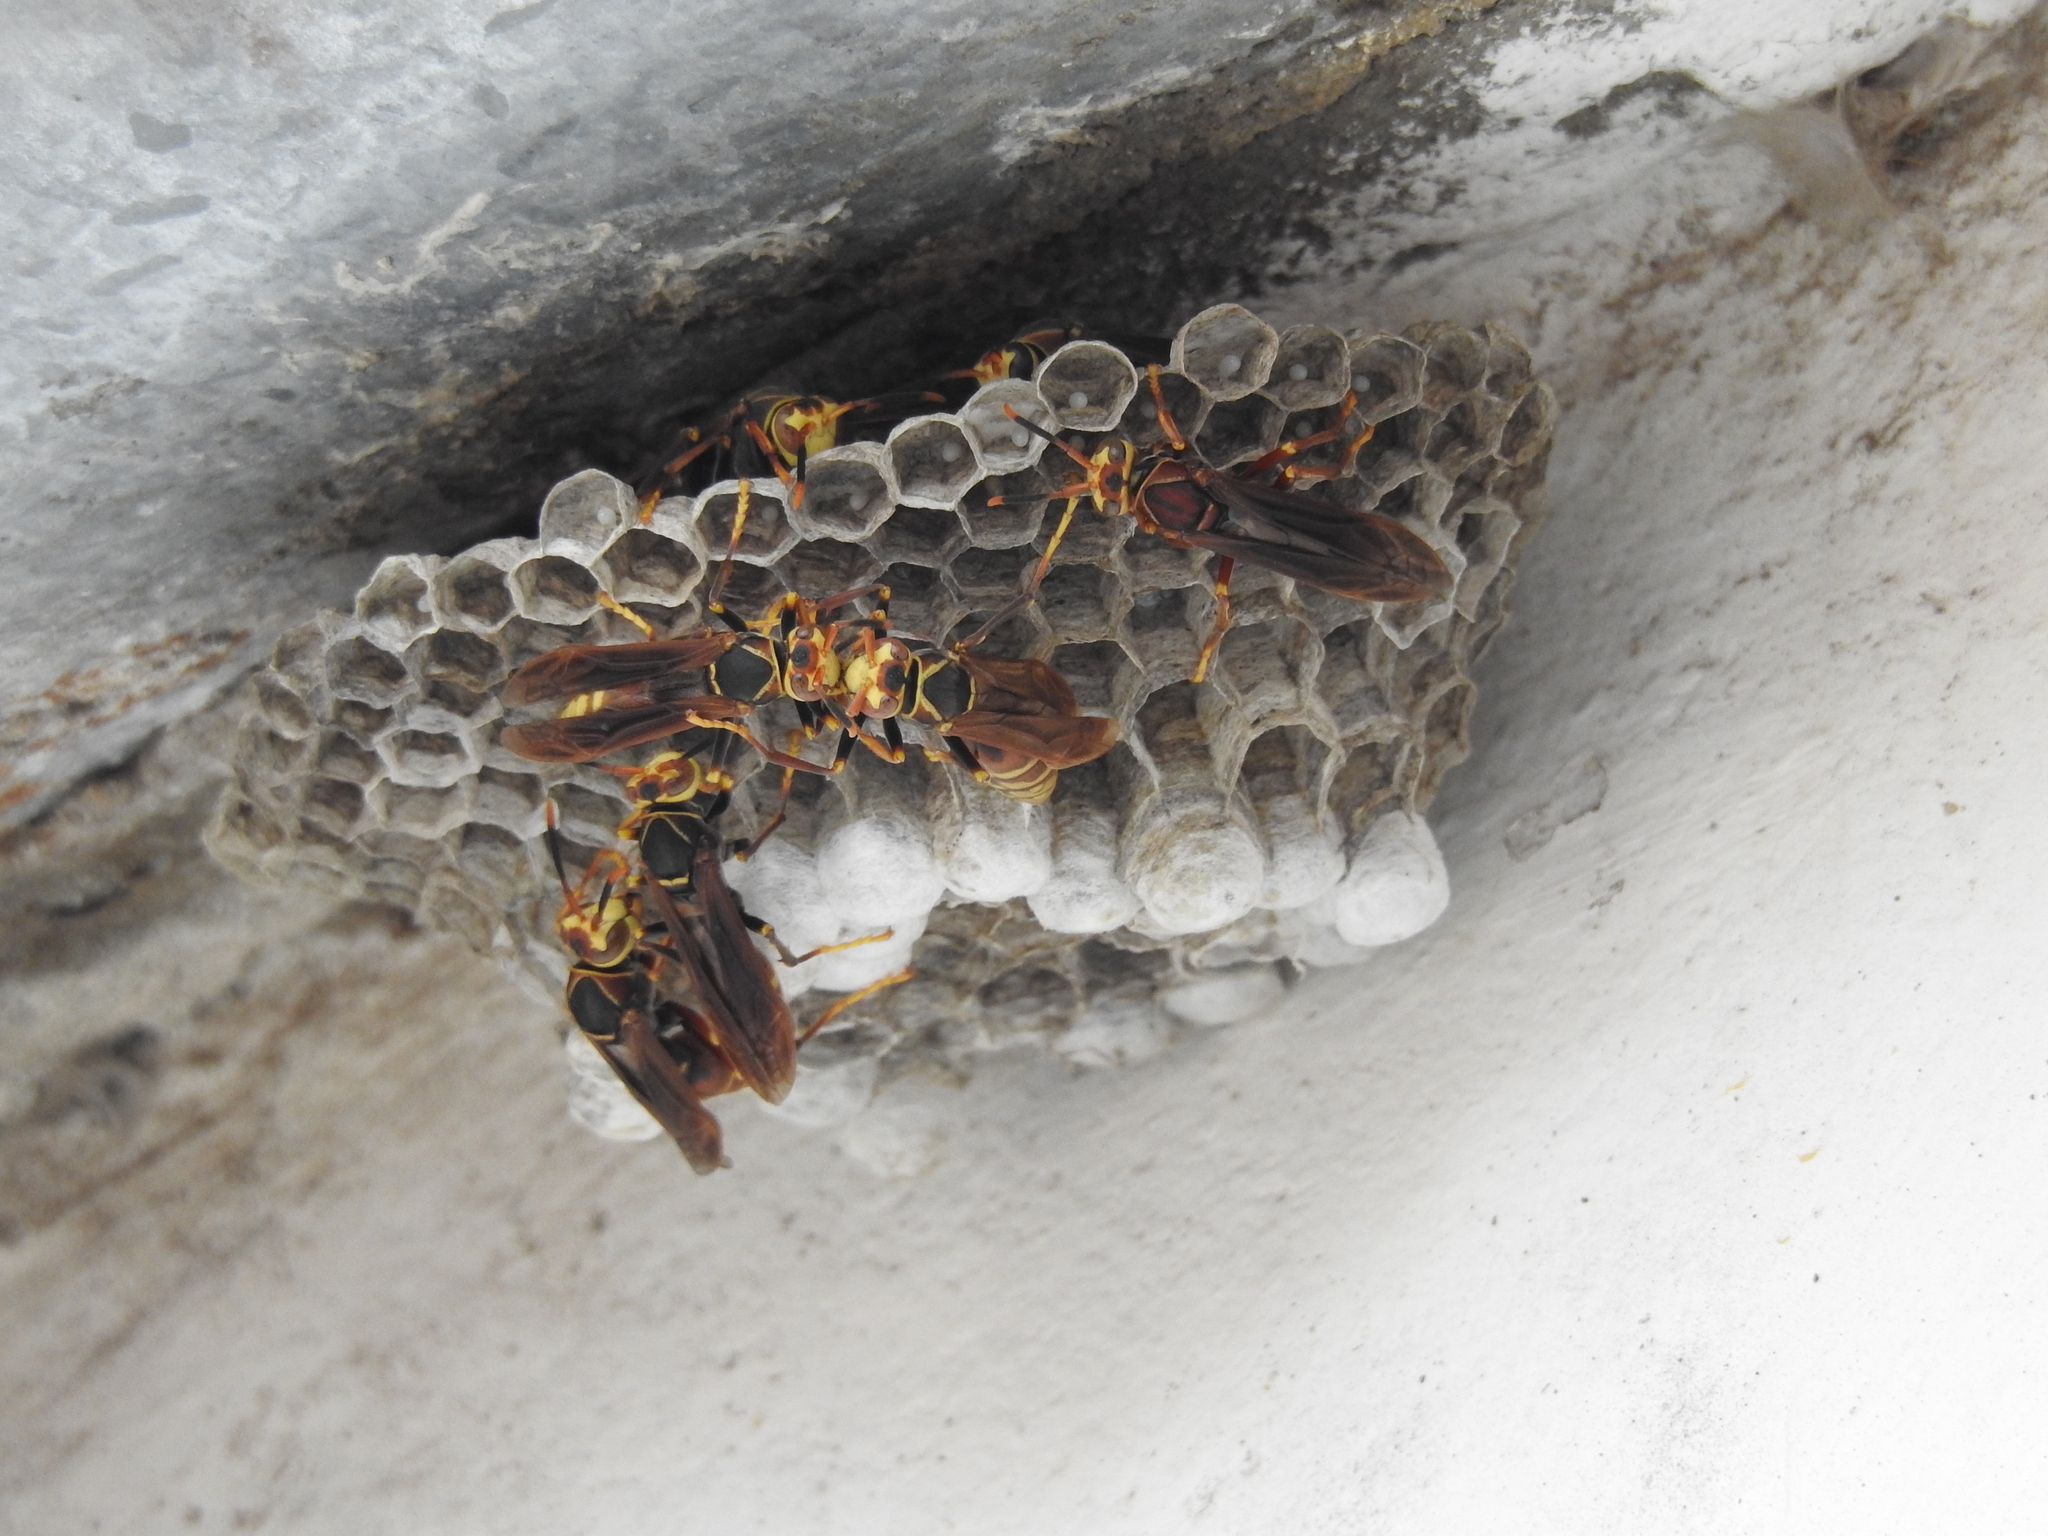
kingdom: Animalia
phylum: Arthropoda
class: Insecta
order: Hymenoptera
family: Eumenidae
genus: Polistes
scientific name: Polistes buyssoni
